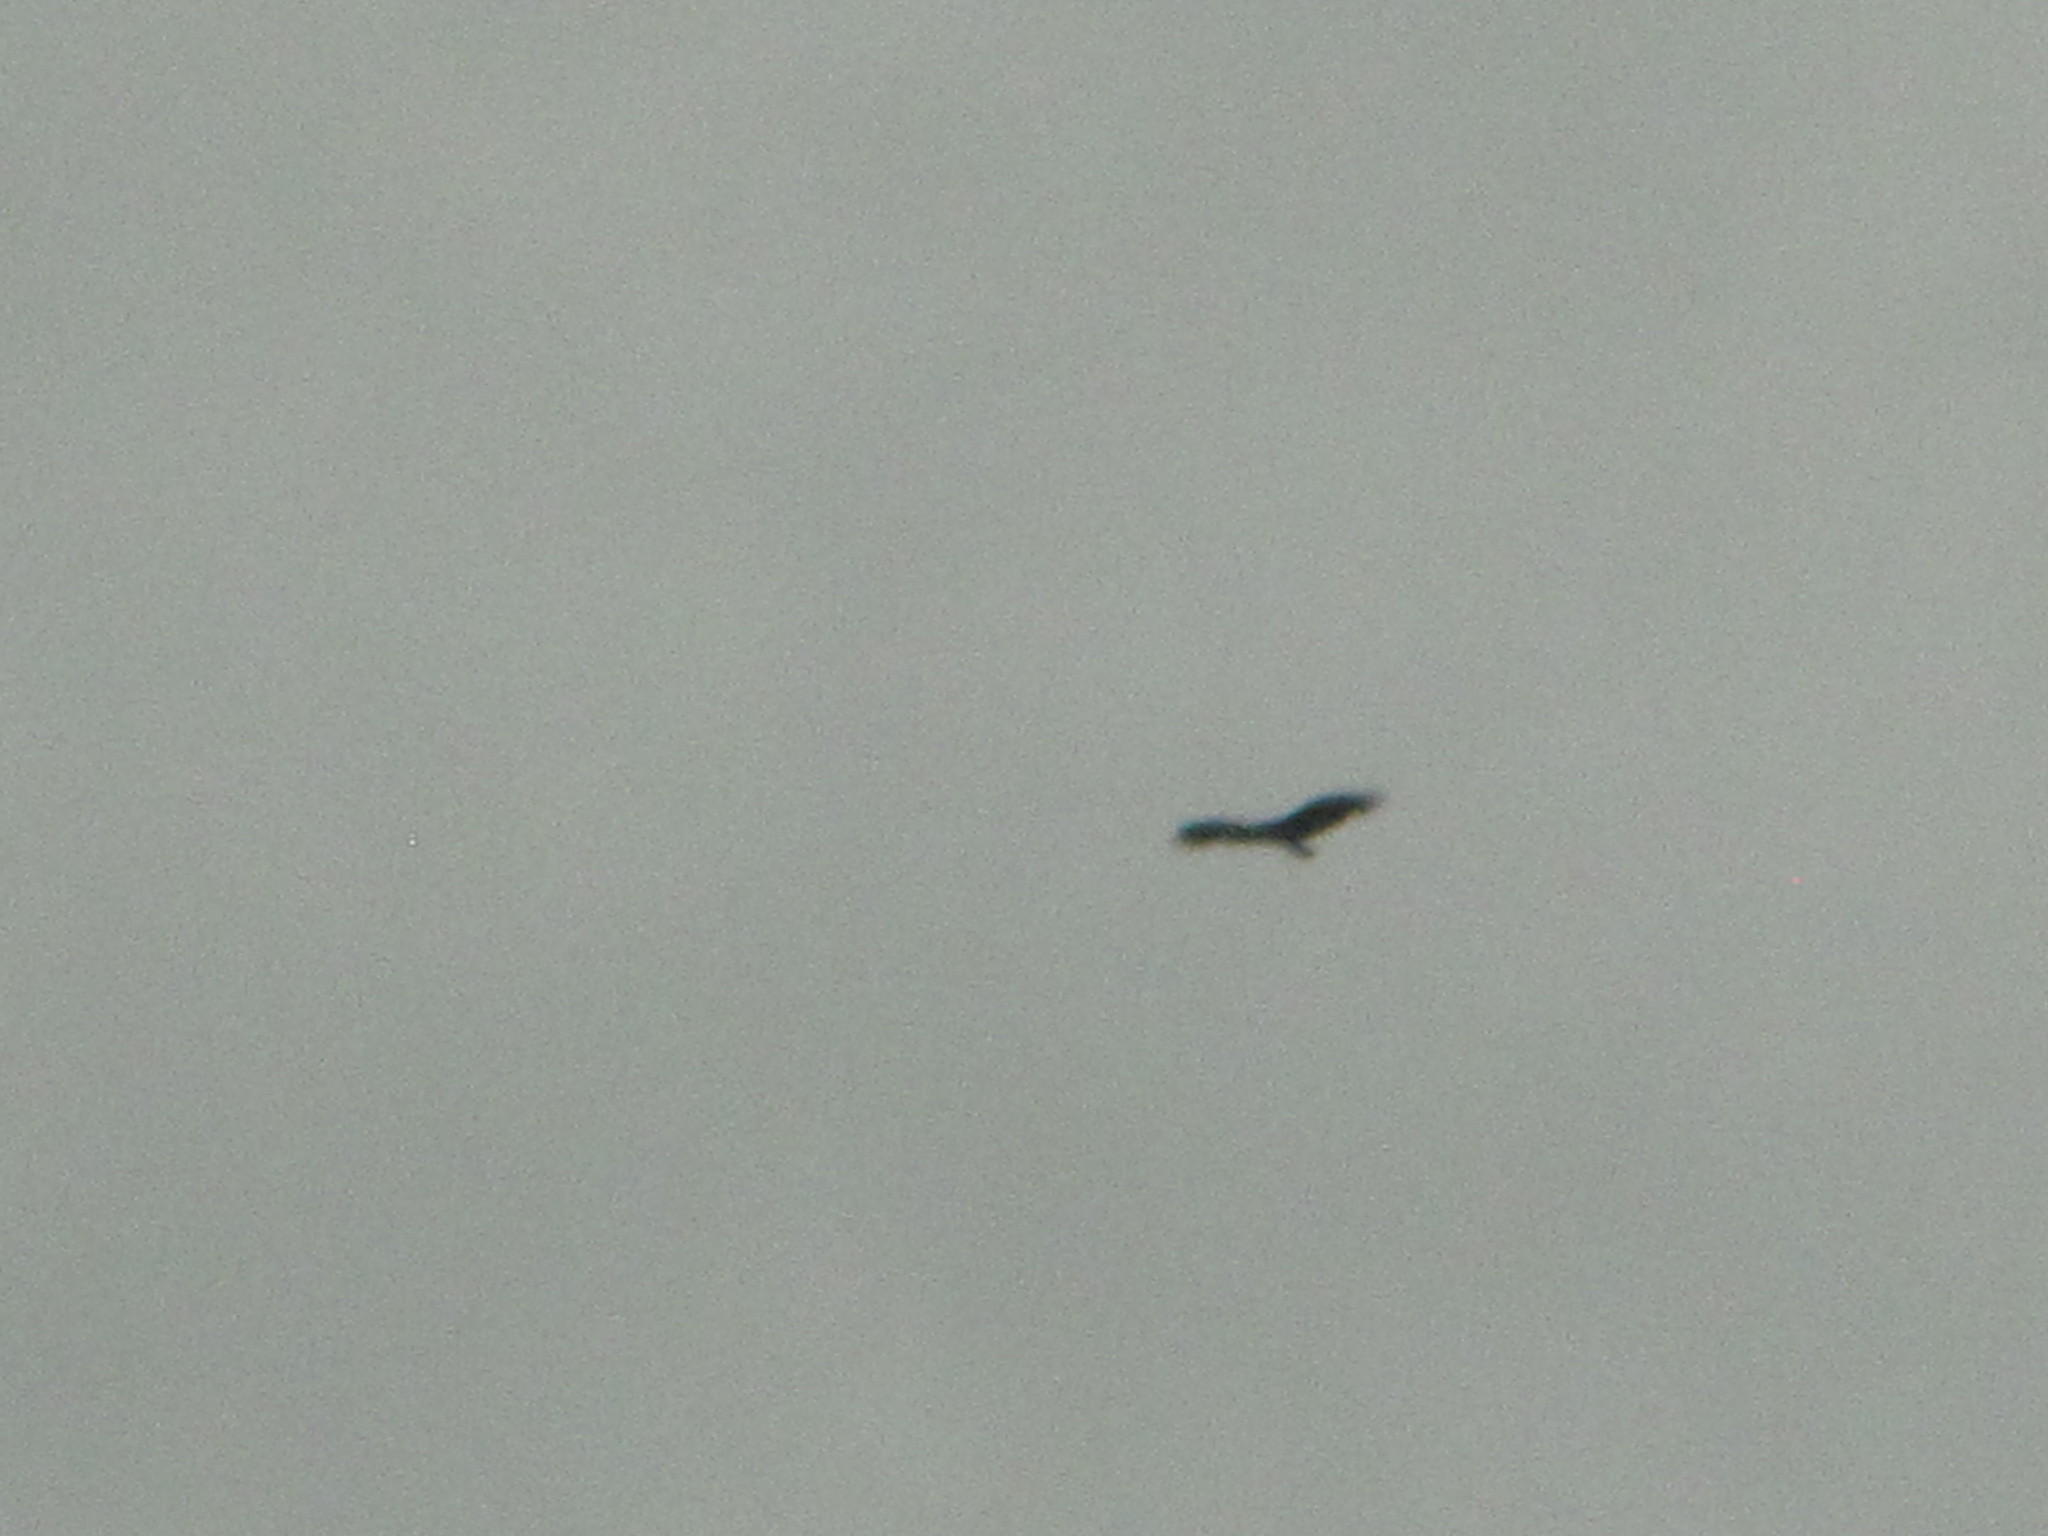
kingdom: Animalia
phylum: Chordata
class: Aves
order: Accipitriformes
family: Cathartidae
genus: Cathartes
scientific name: Cathartes aura
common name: Turkey vulture
